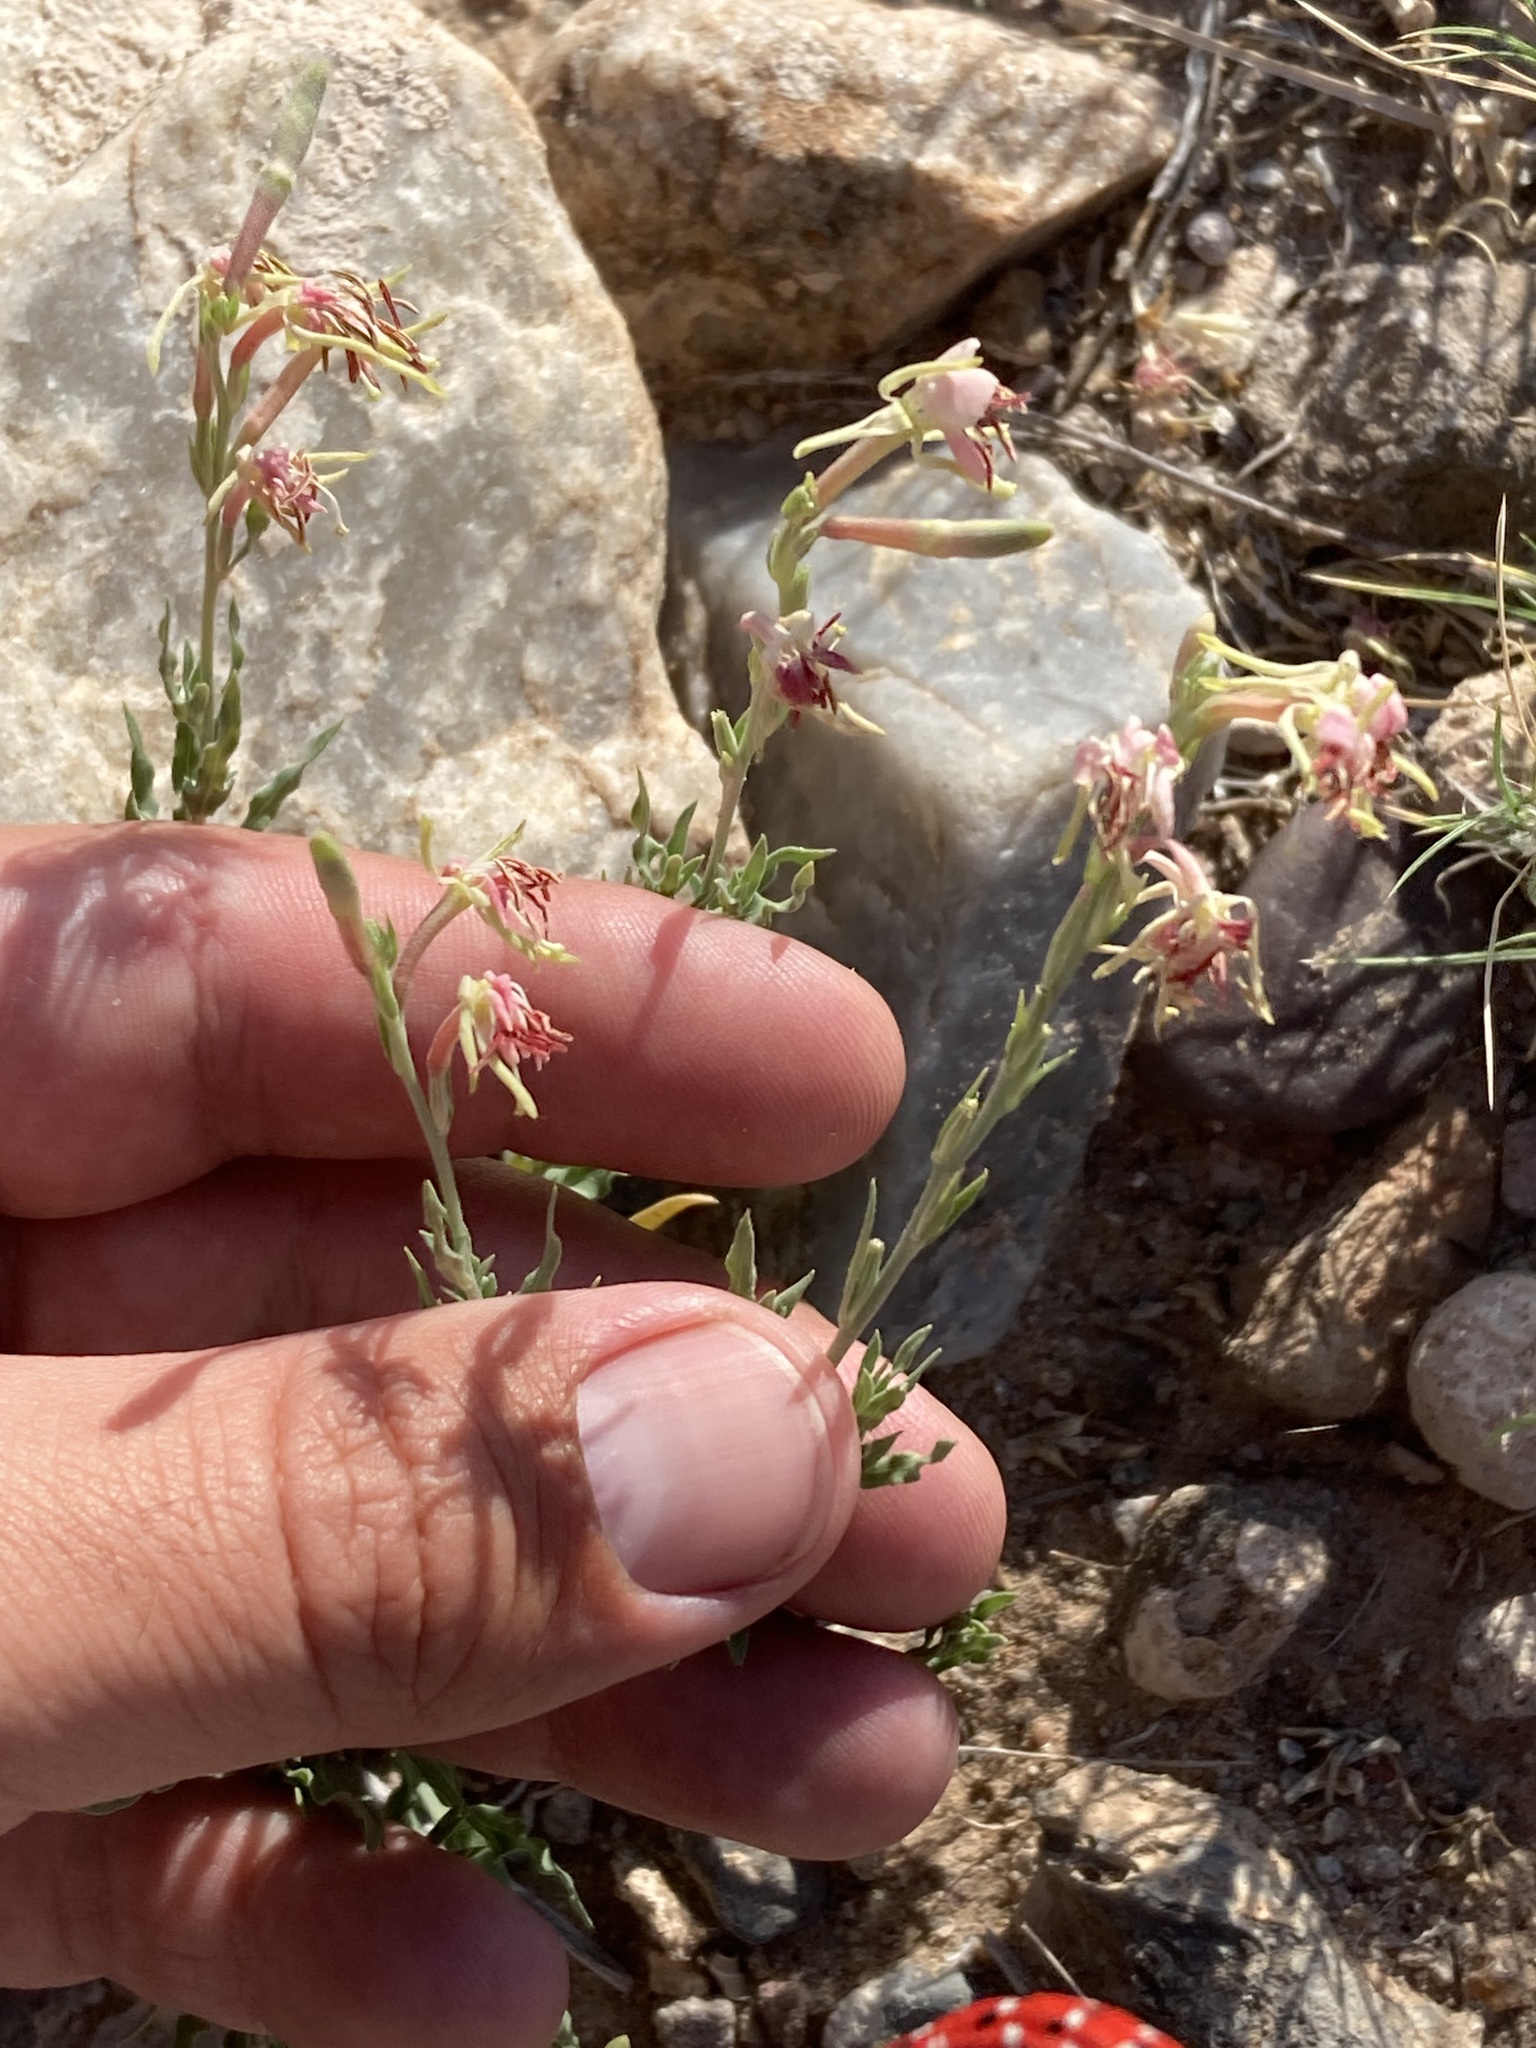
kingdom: Plantae
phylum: Tracheophyta
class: Magnoliopsida
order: Myrtales
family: Onagraceae
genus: Oenothera
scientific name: Oenothera suffrutescens
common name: Scarlet beeblossom
